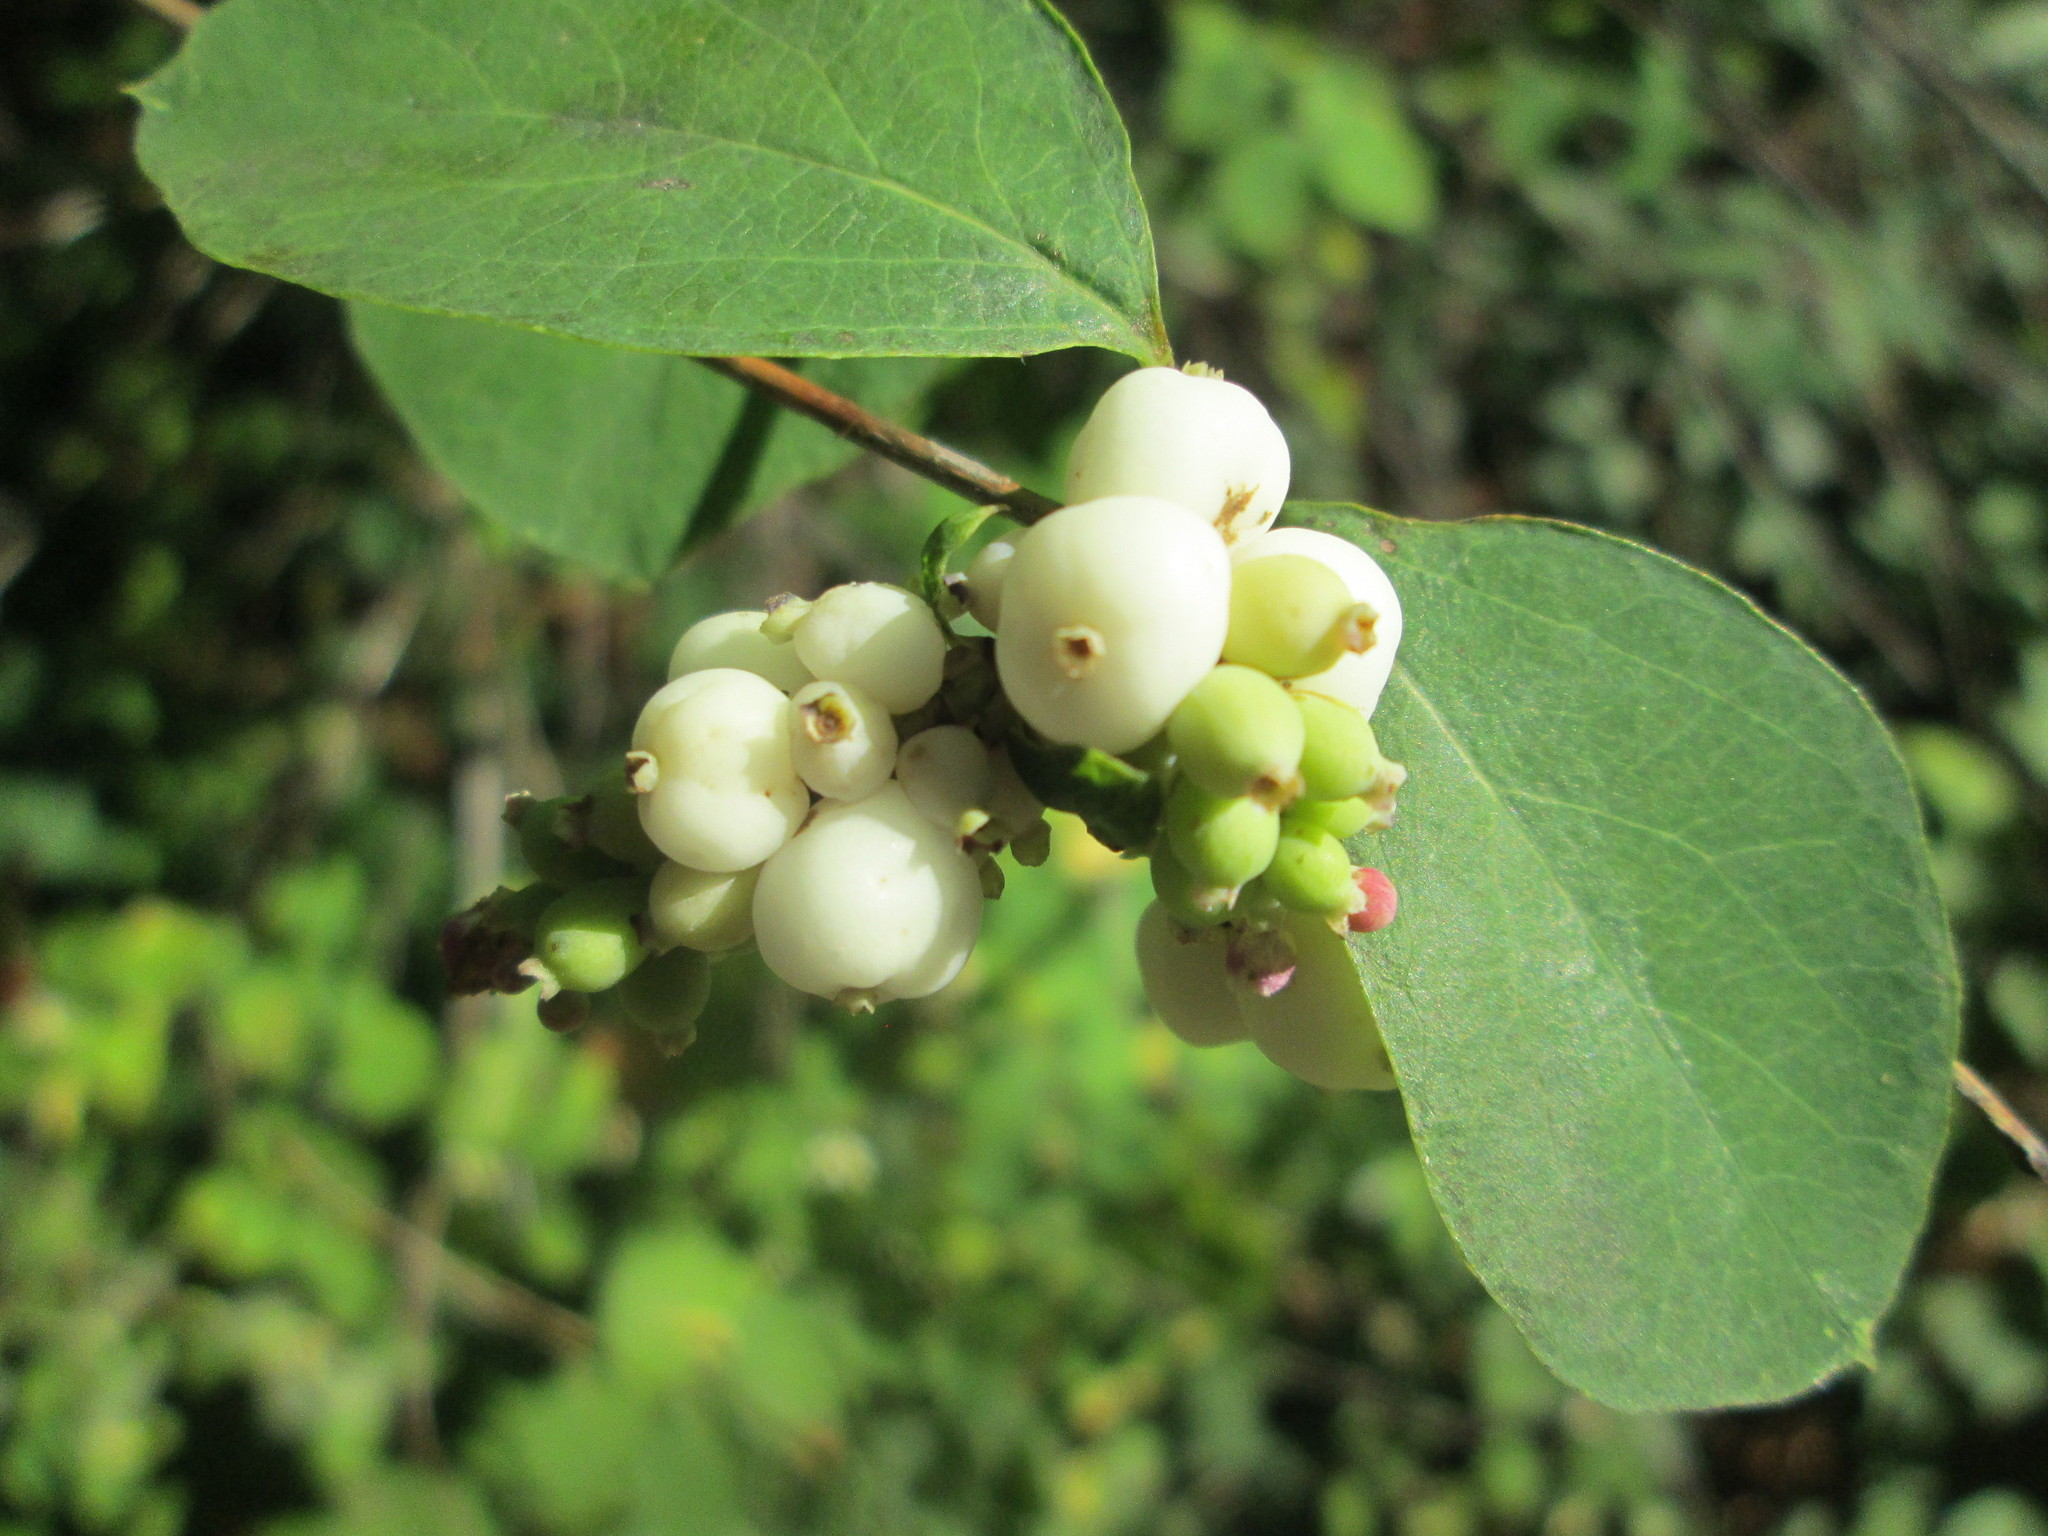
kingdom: Plantae
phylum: Tracheophyta
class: Magnoliopsida
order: Dipsacales
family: Caprifoliaceae
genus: Symphoricarpos
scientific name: Symphoricarpos albus
